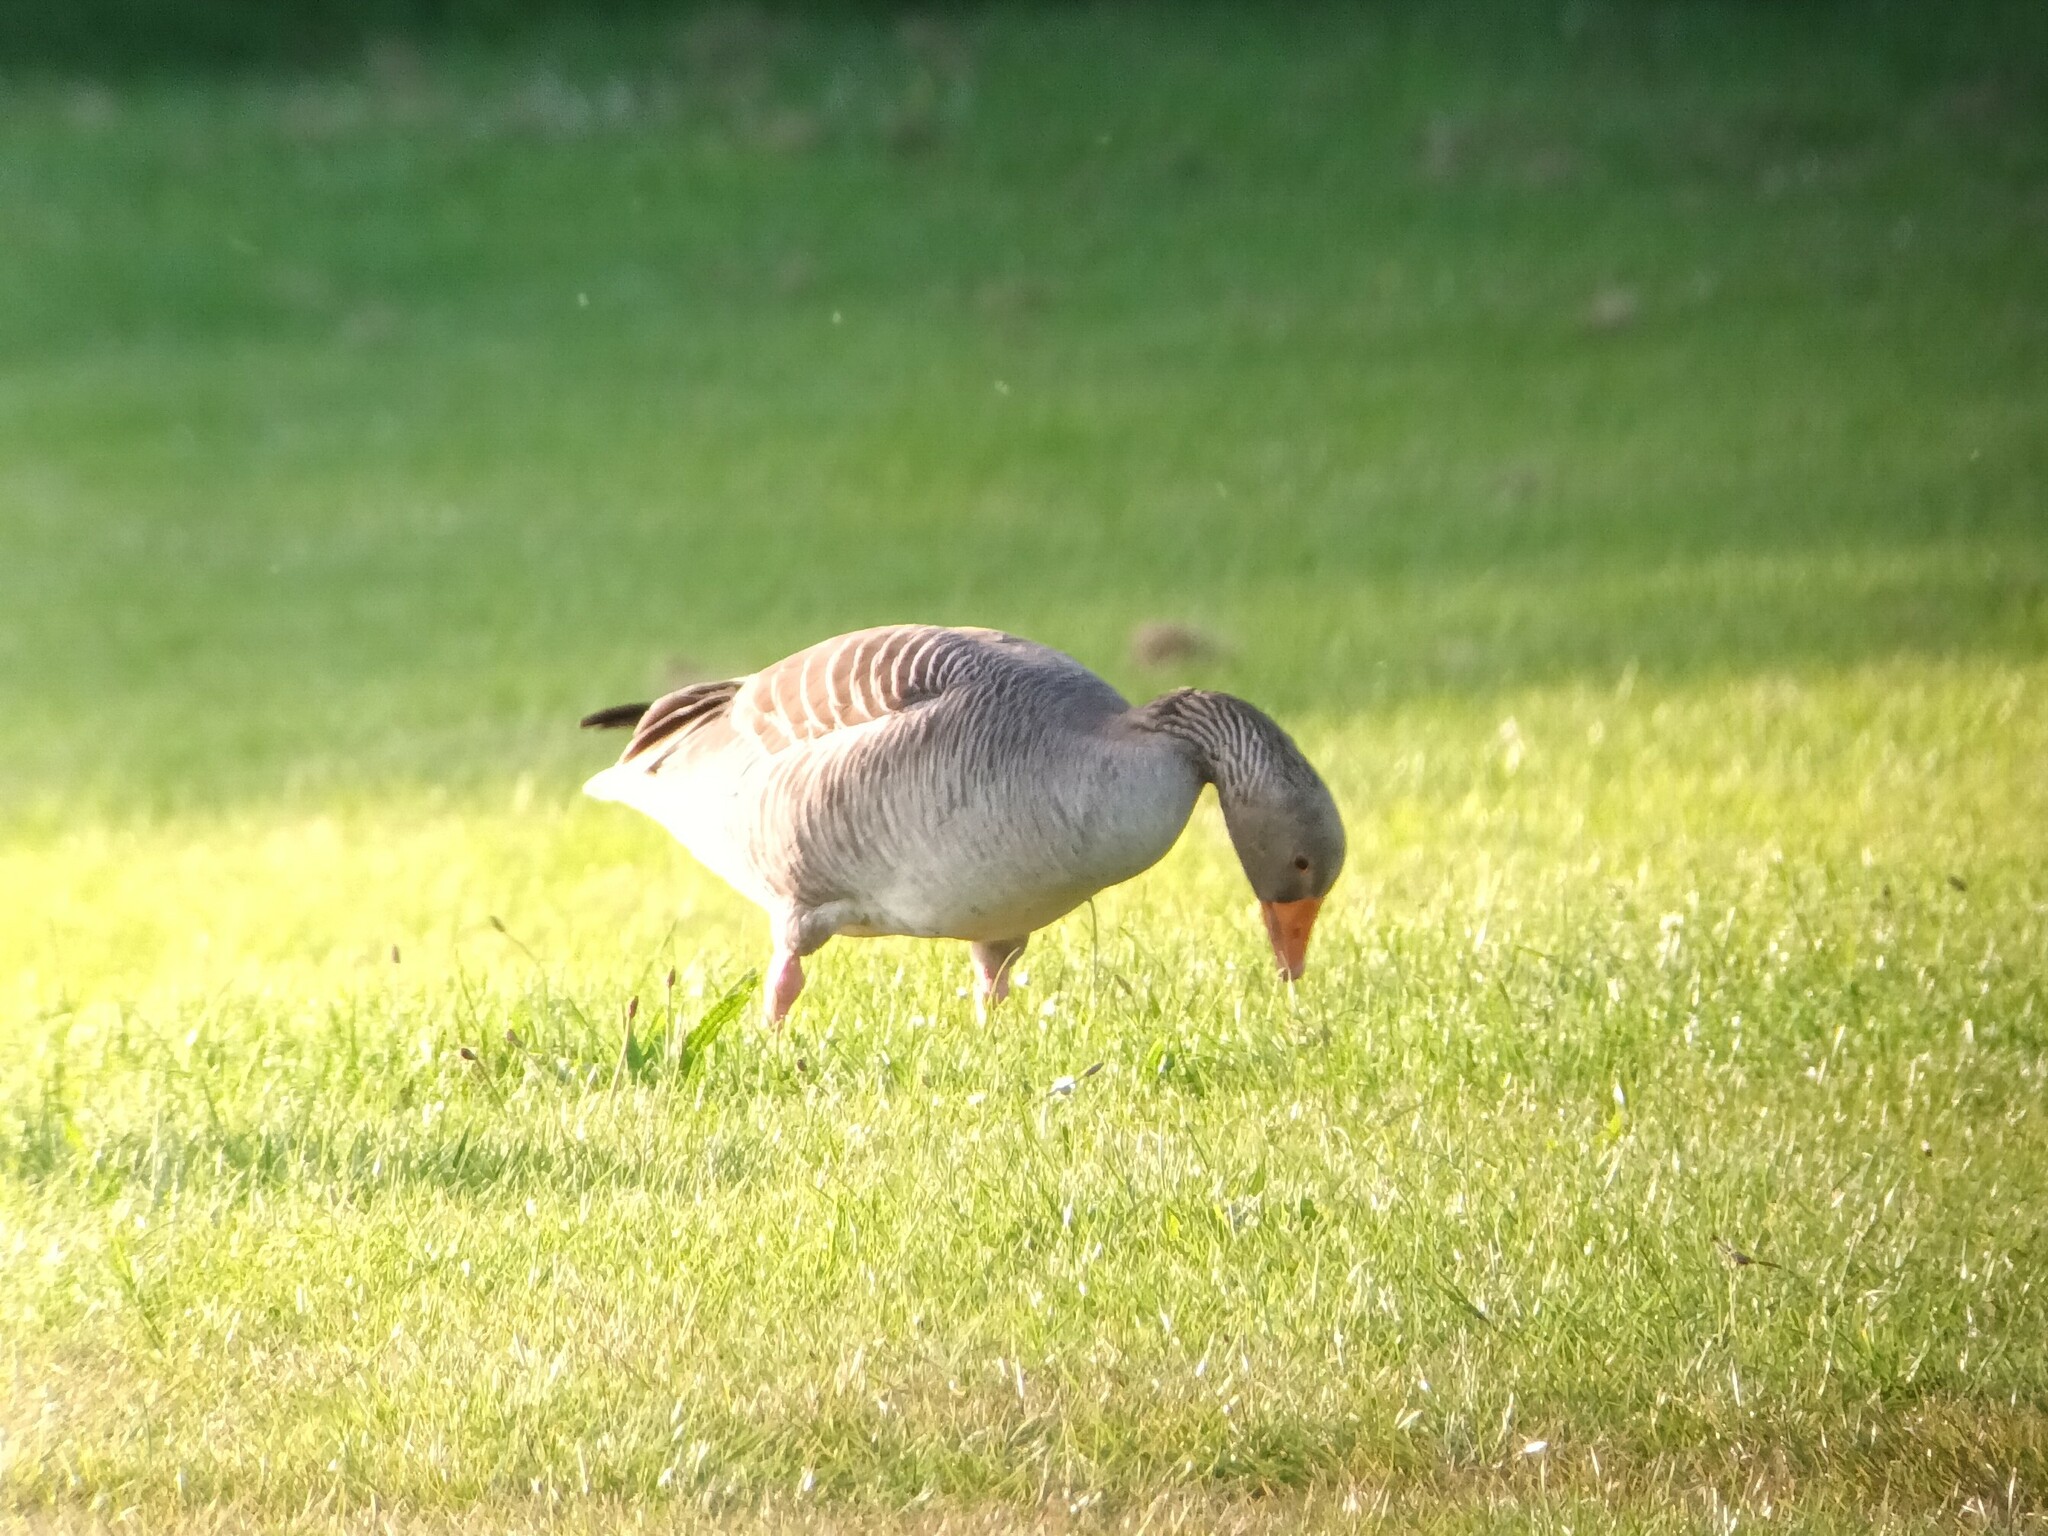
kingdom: Animalia
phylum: Chordata
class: Aves
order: Anseriformes
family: Anatidae
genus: Anser
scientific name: Anser anser
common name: Greylag goose
